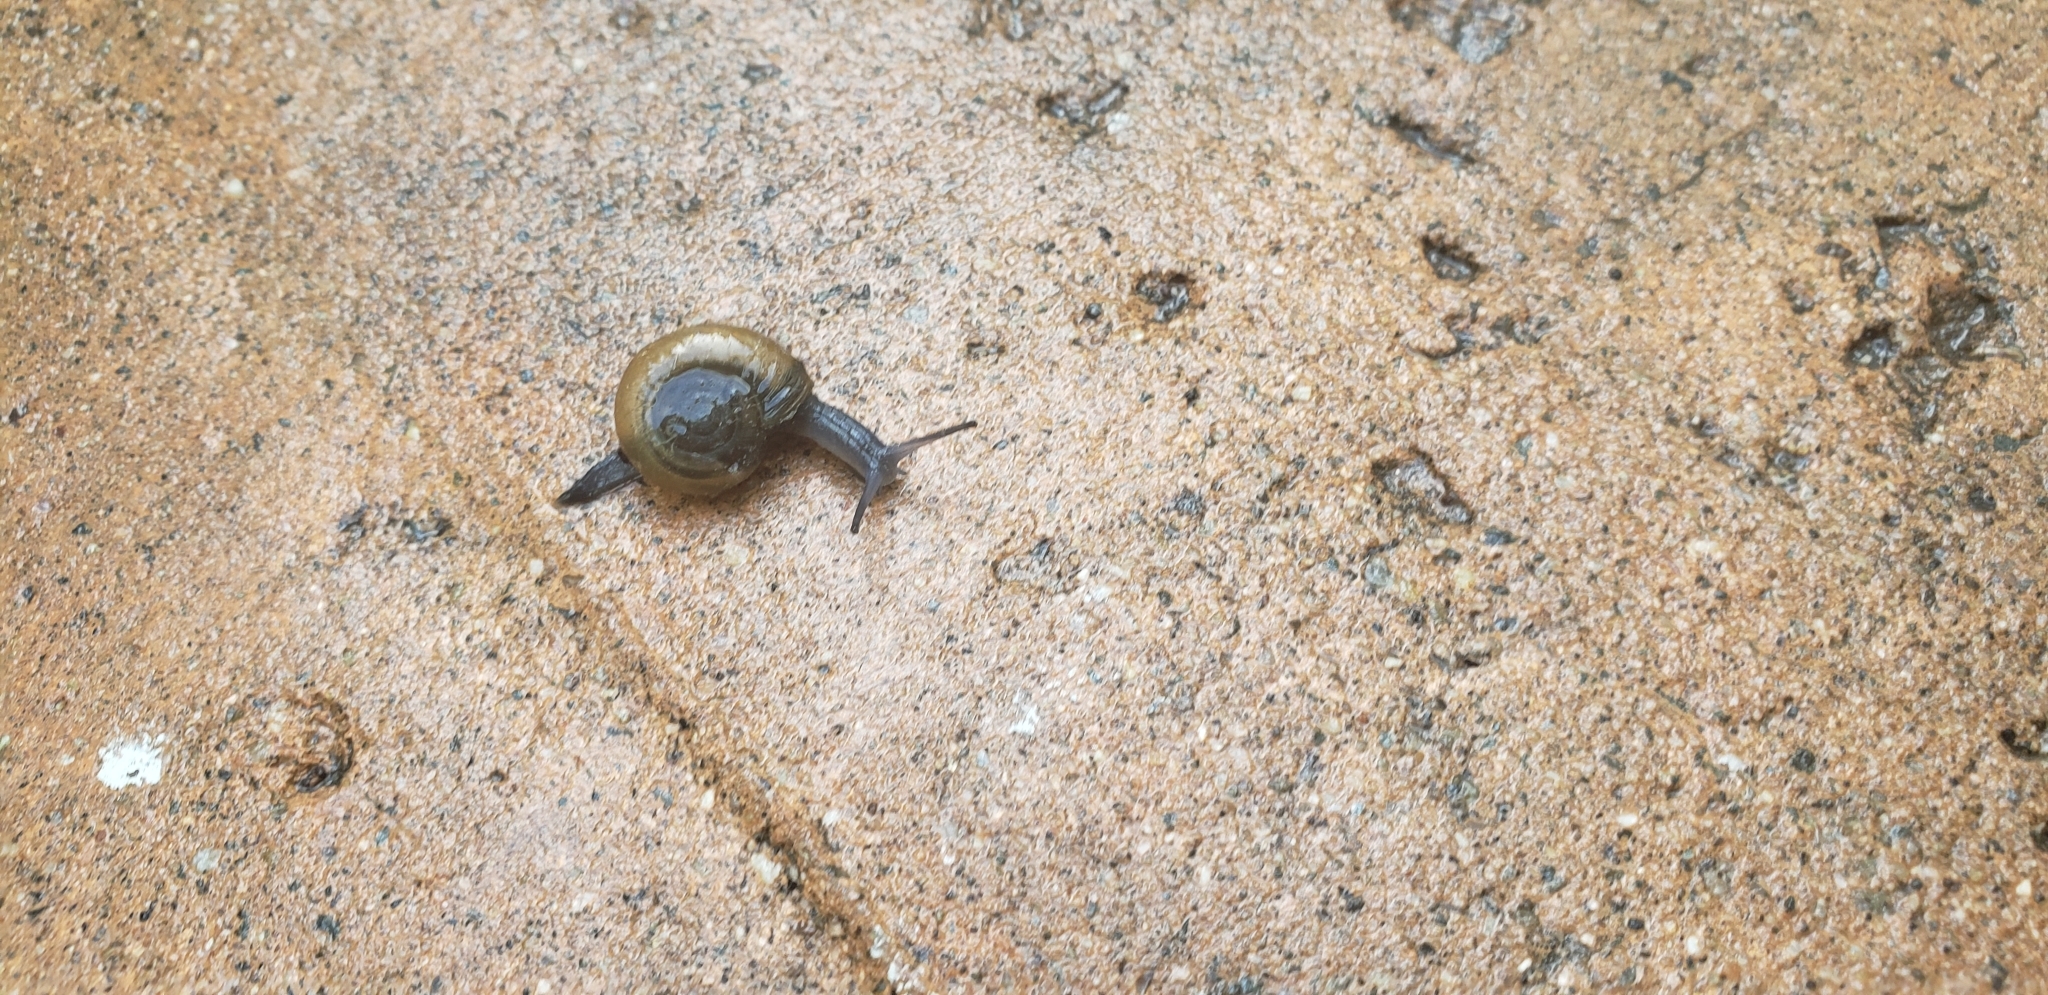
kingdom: Animalia
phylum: Mollusca
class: Gastropoda
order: Stylommatophora
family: Oxychilidae
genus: Oxychilus
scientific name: Oxychilus
